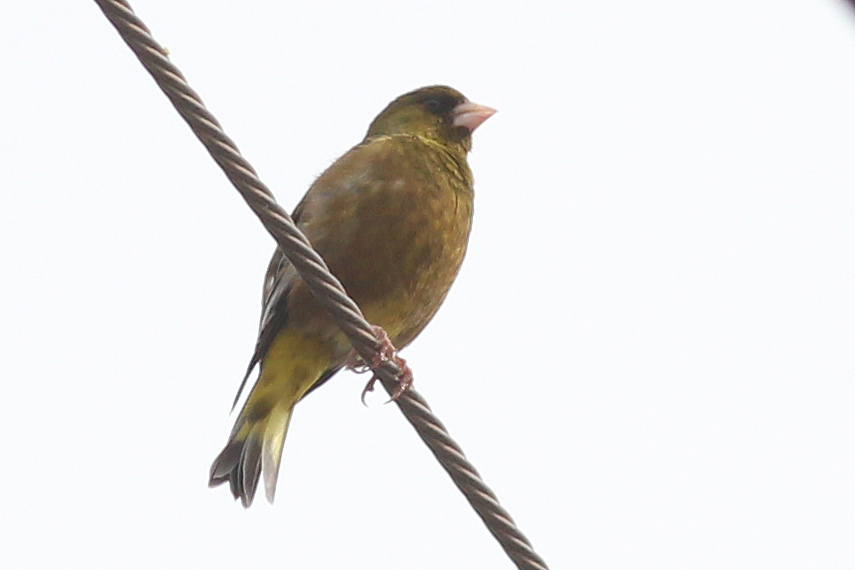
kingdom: Plantae
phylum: Tracheophyta
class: Liliopsida
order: Poales
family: Poaceae
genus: Chloris
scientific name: Chloris sinica
